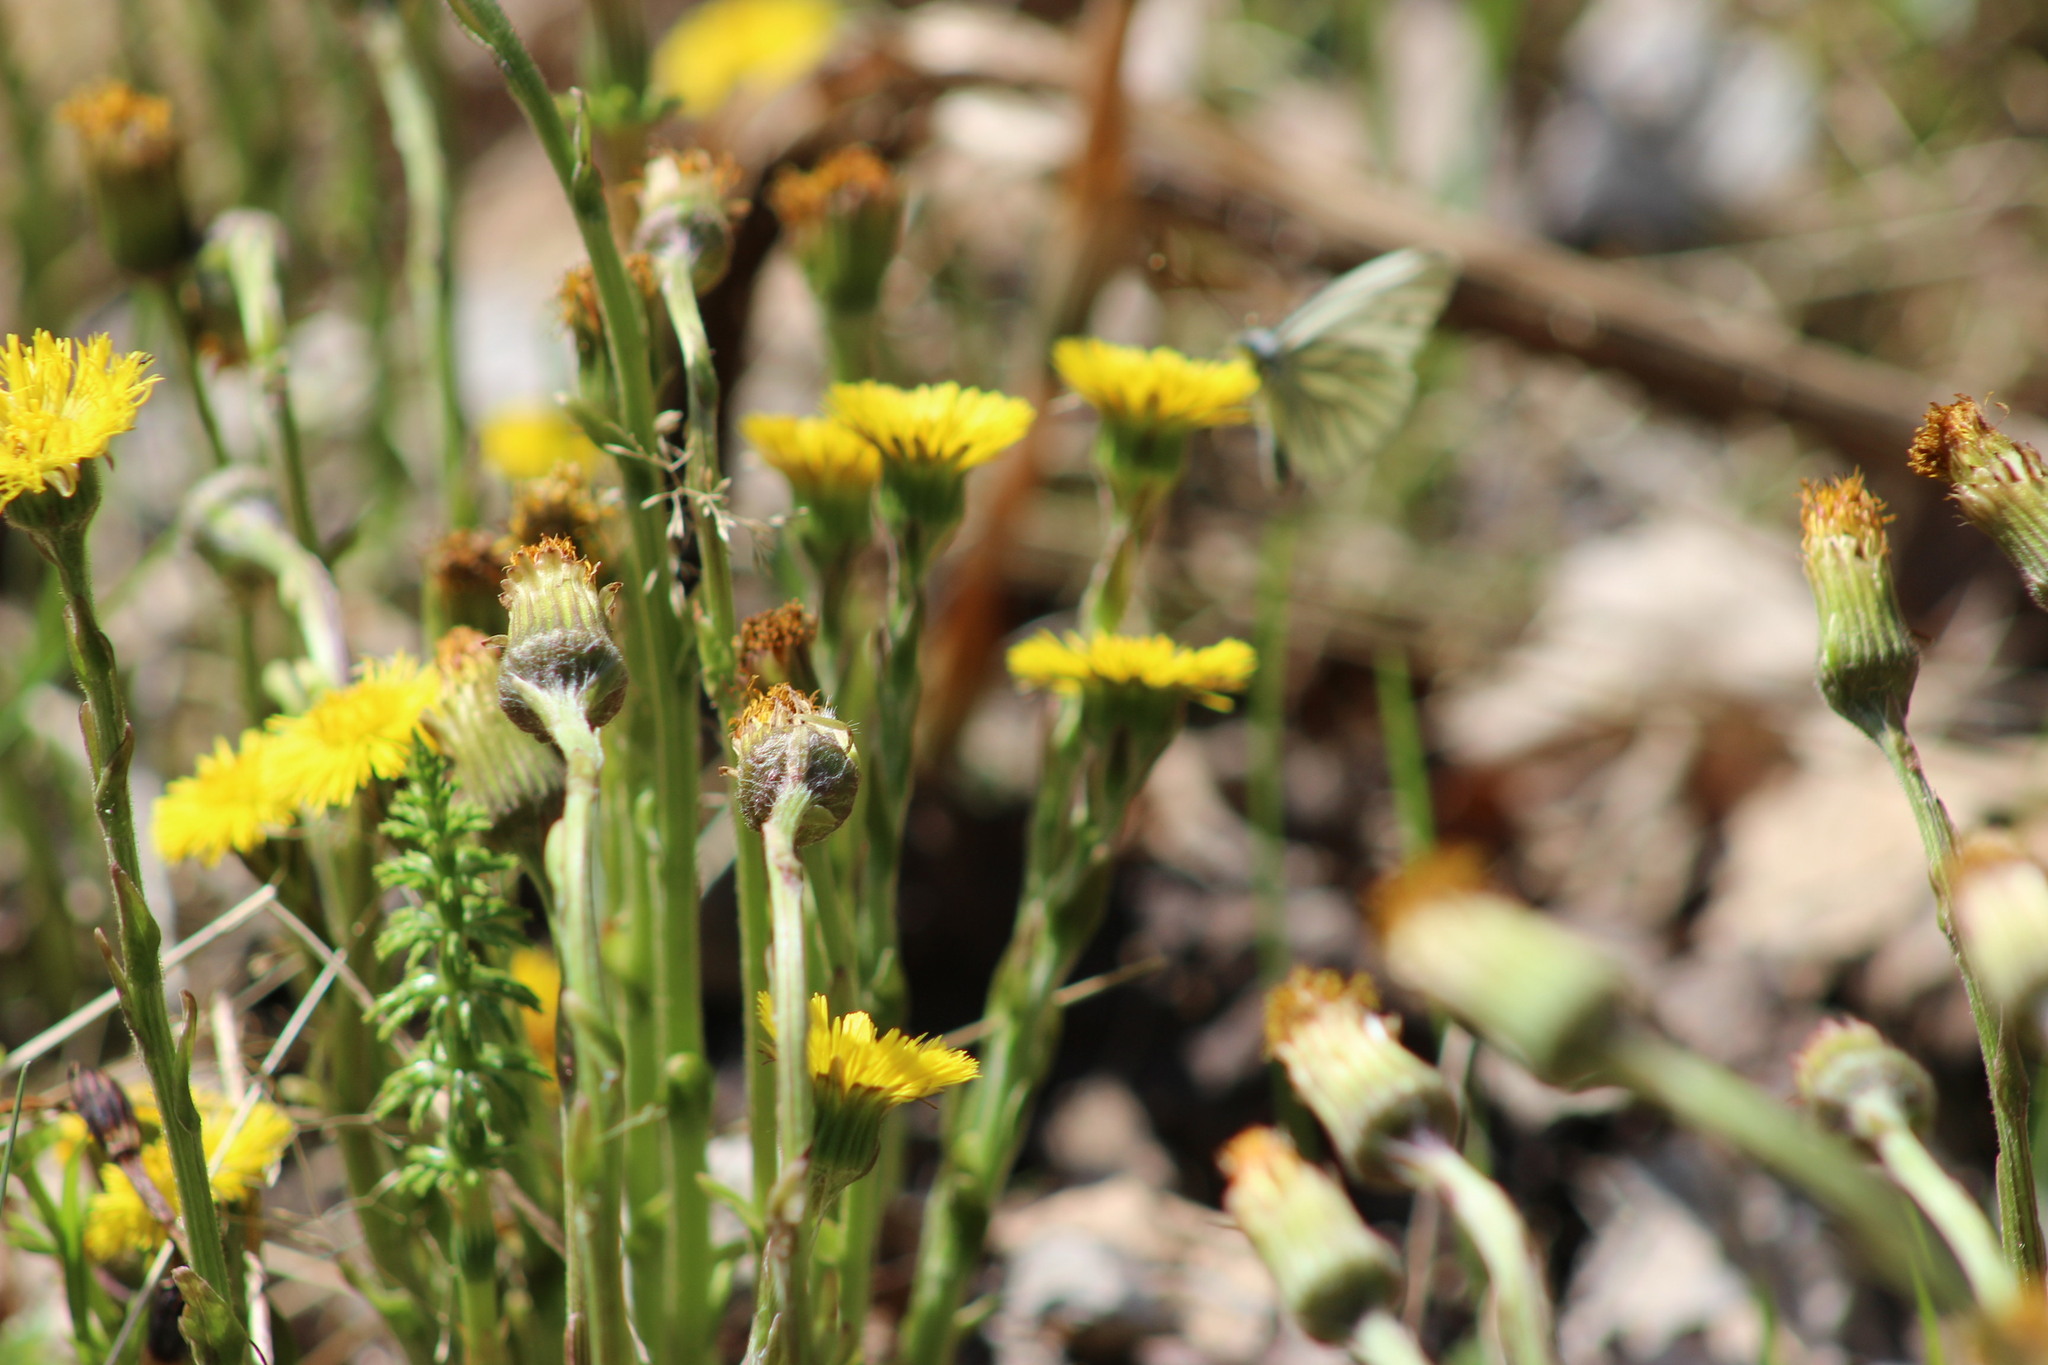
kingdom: Plantae
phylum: Tracheophyta
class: Magnoliopsida
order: Asterales
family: Asteraceae
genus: Tussilago
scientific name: Tussilago farfara
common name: Coltsfoot
